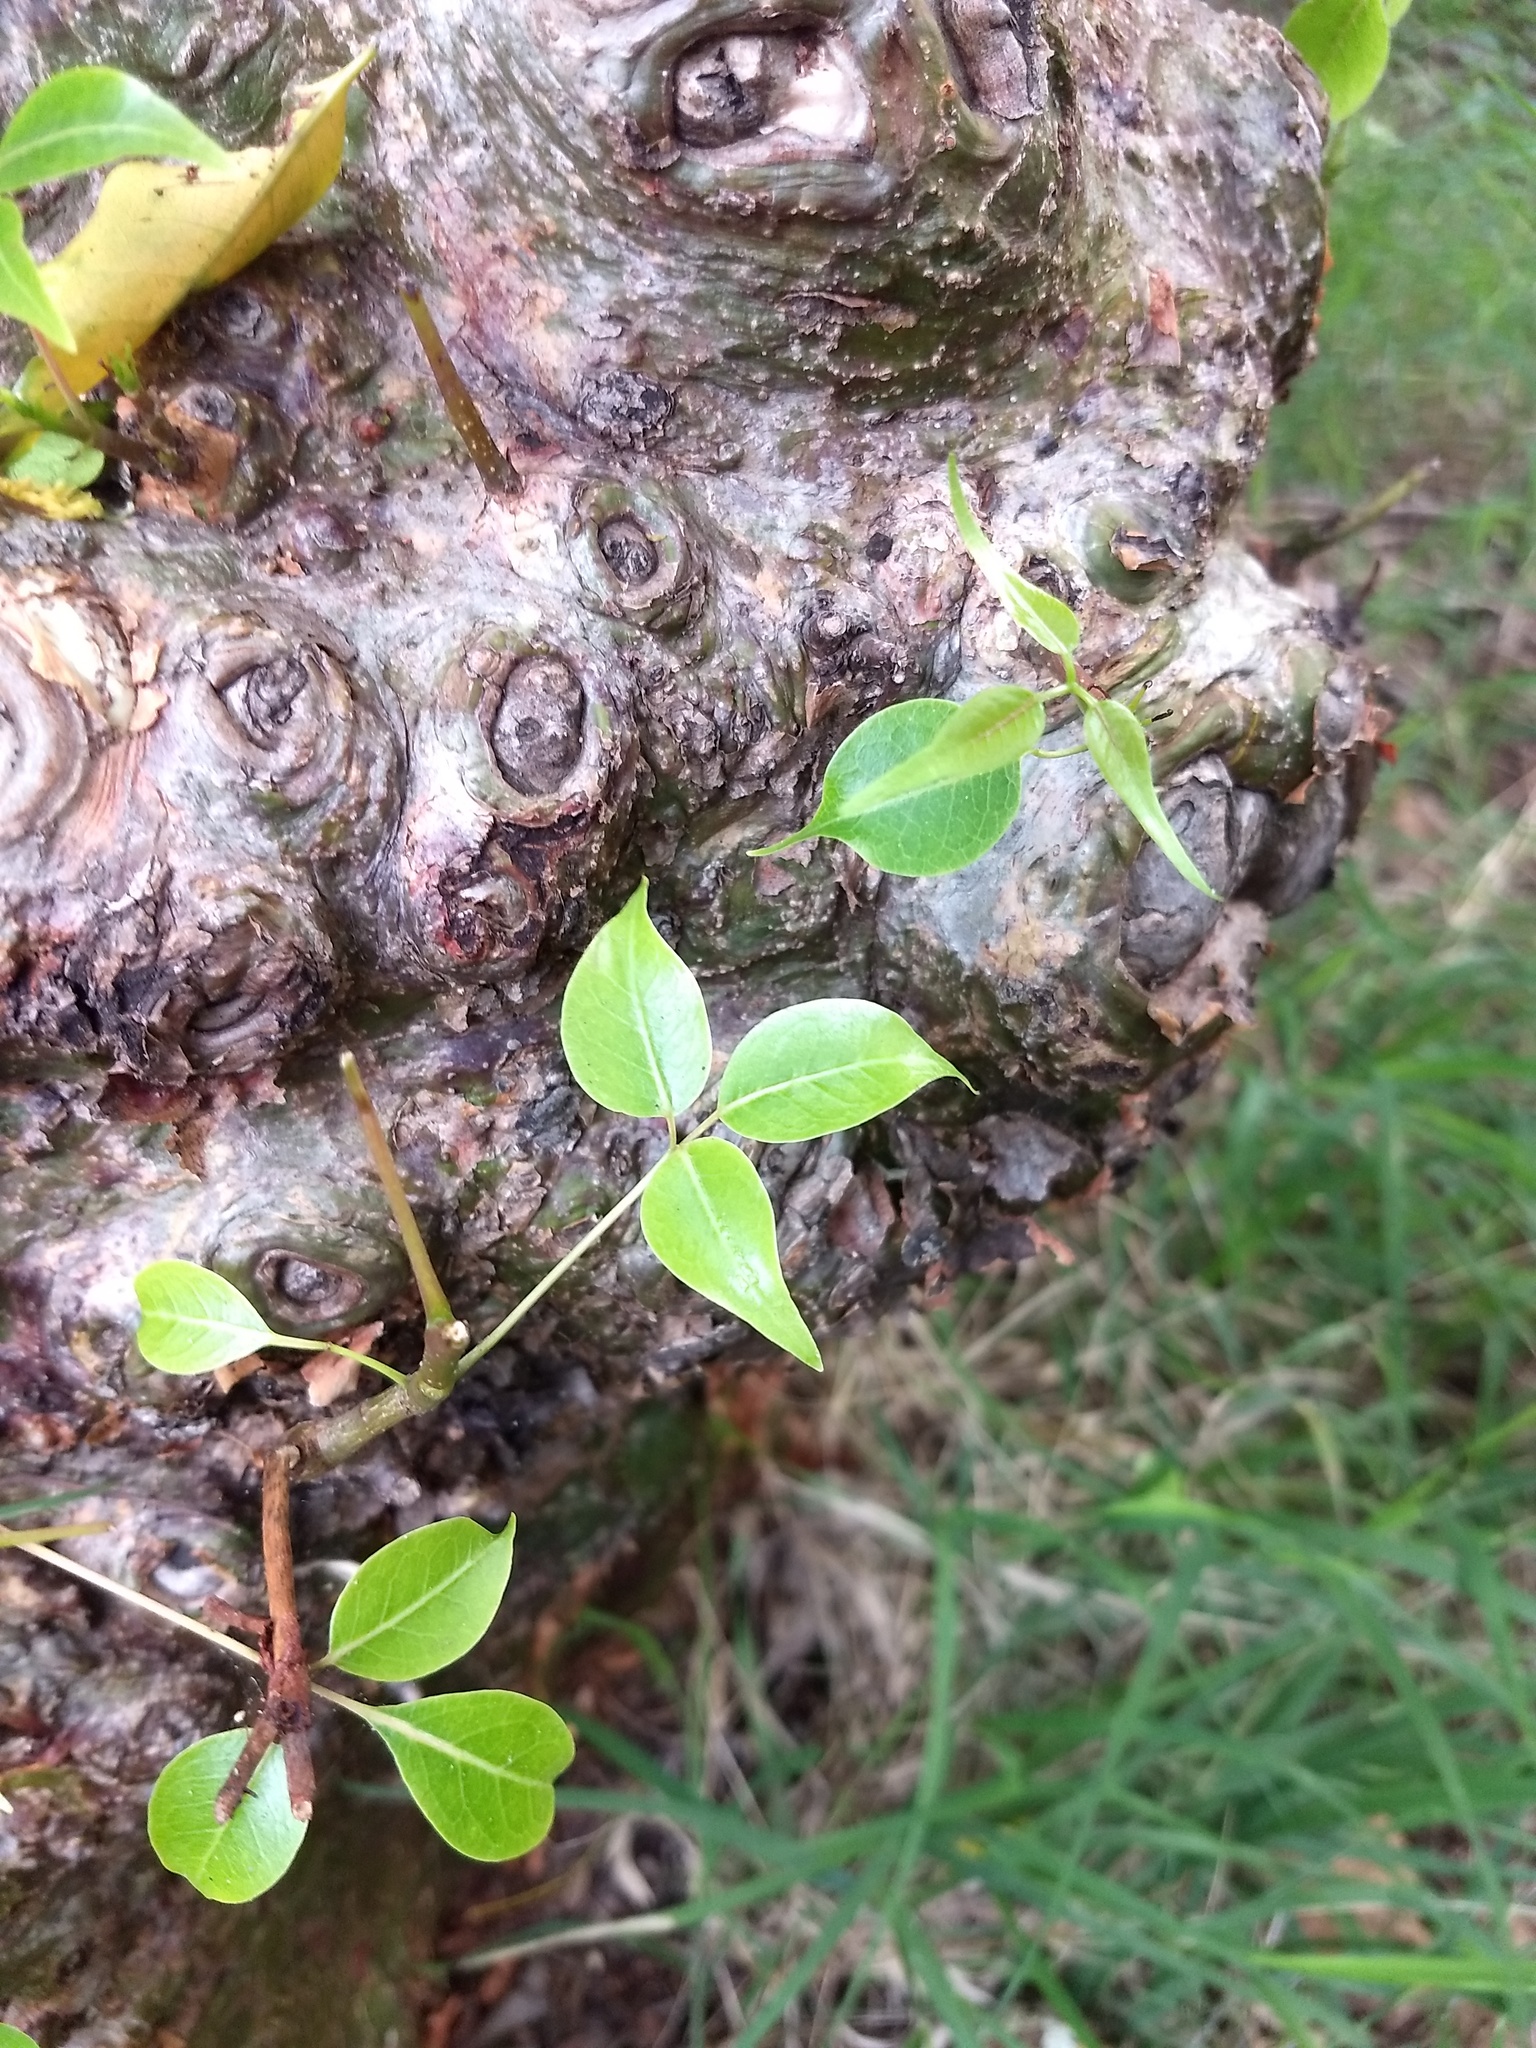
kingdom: Plantae
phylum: Tracheophyta
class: Magnoliopsida
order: Sapindales
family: Burseraceae
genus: Commiphora
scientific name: Commiphora caudata
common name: Hill-mango
